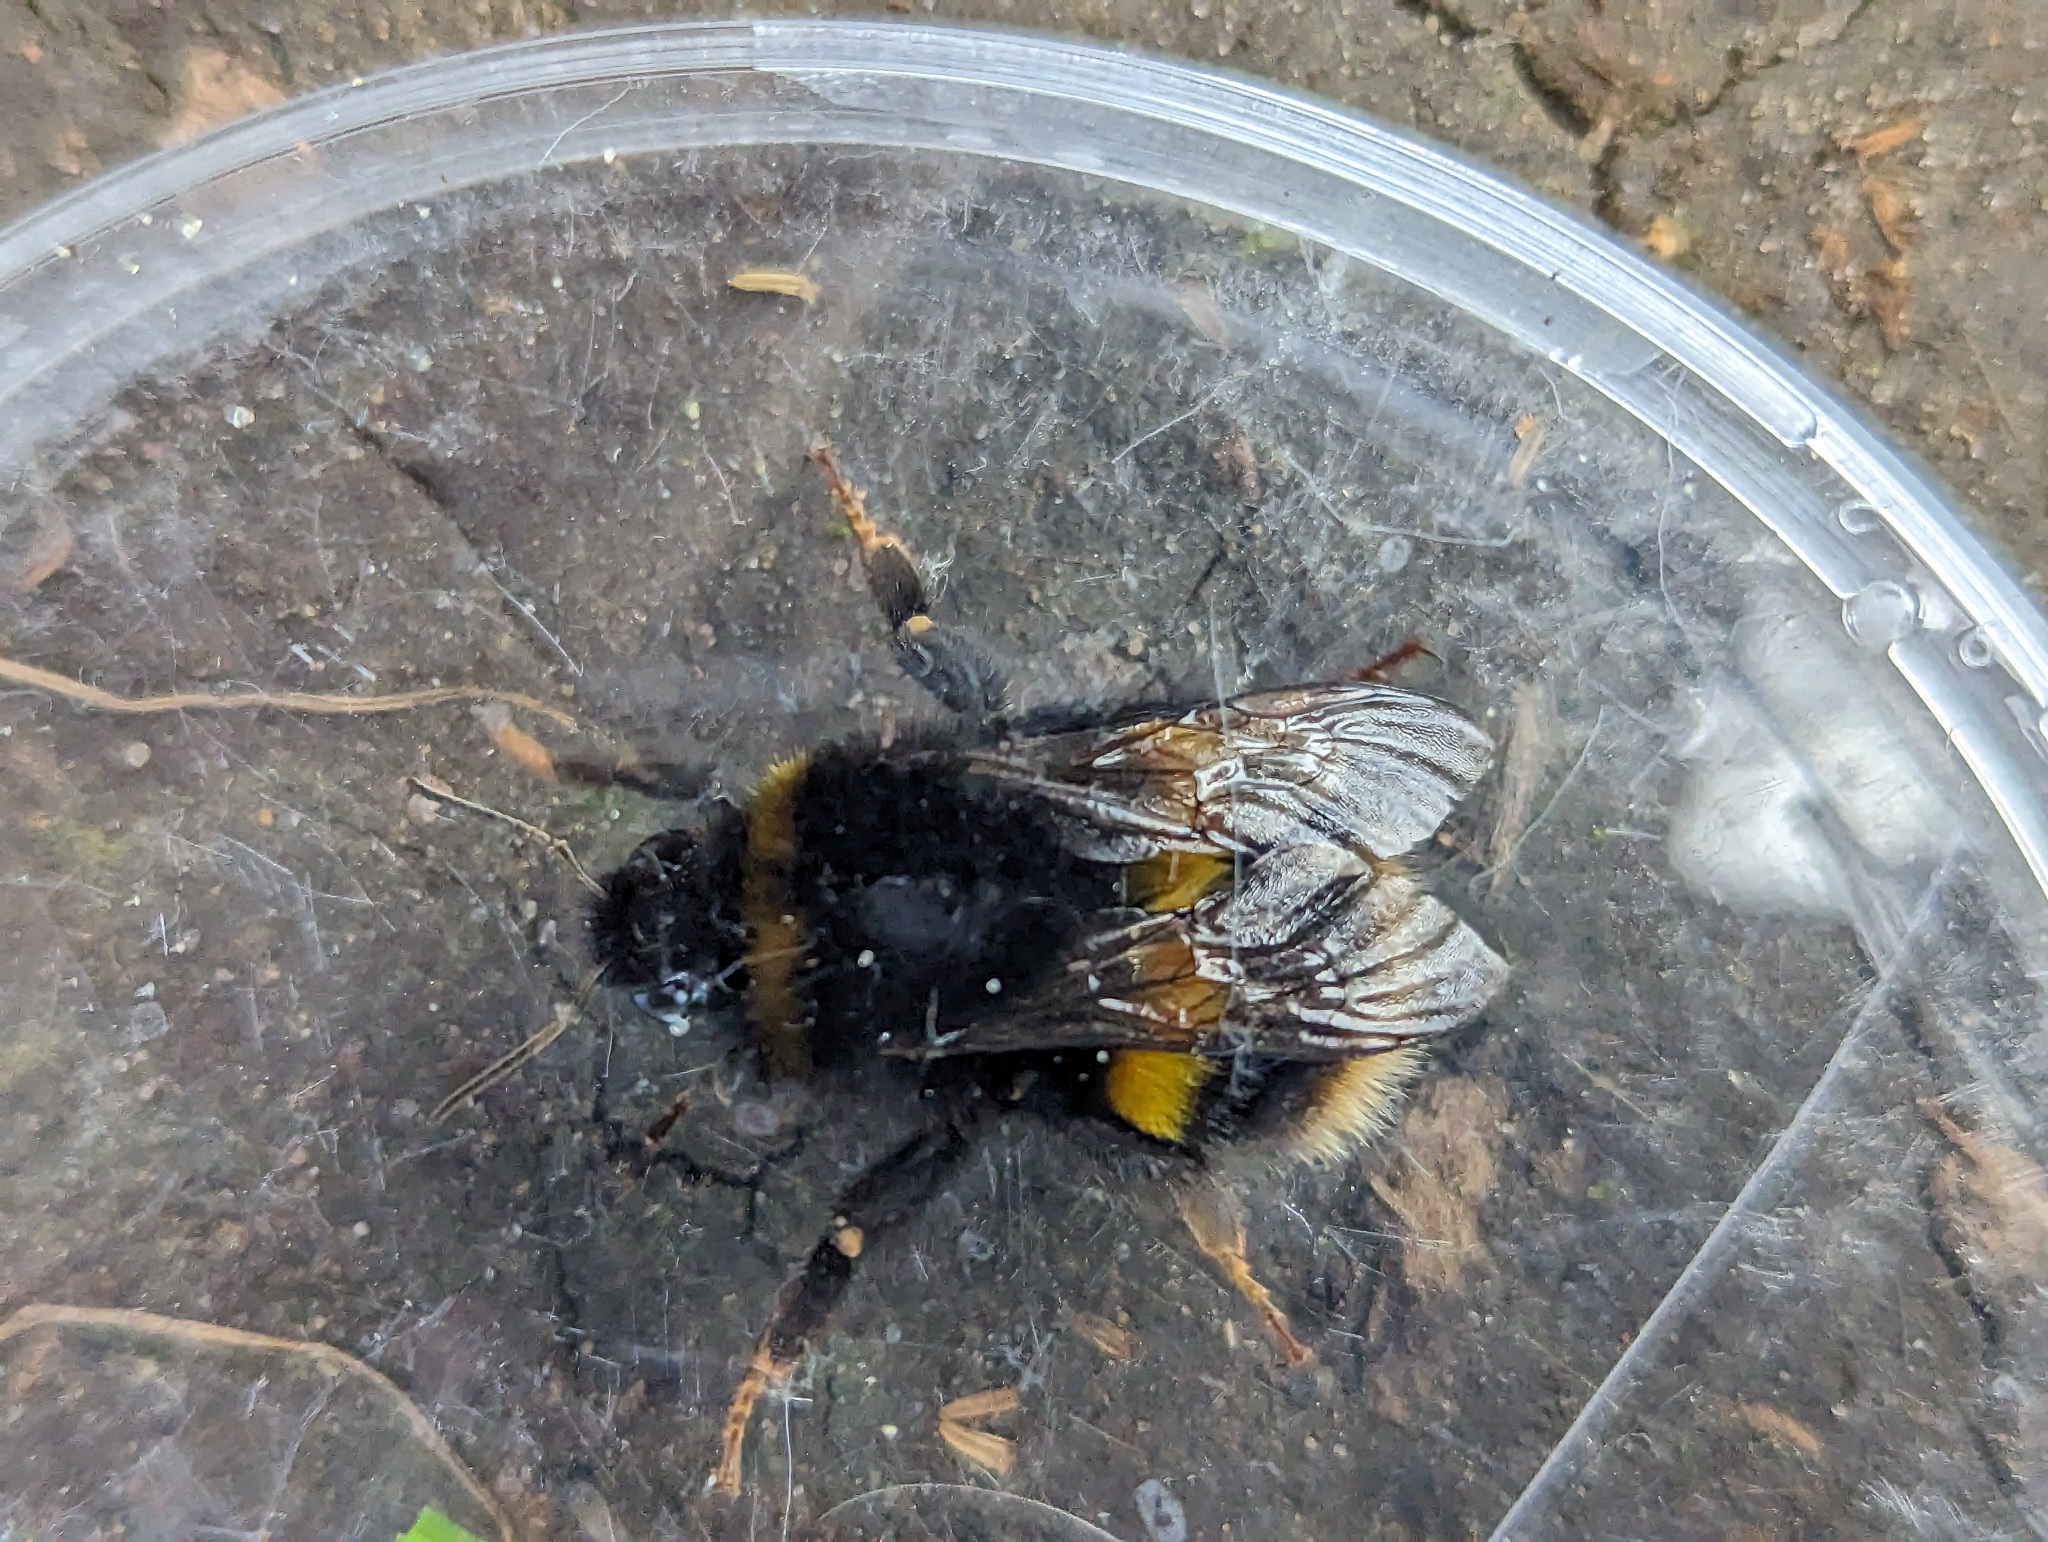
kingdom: Animalia
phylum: Arthropoda
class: Insecta
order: Hymenoptera
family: Apidae
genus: Bombus
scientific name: Bombus terrestris
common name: Buff-tailed bumblebee
